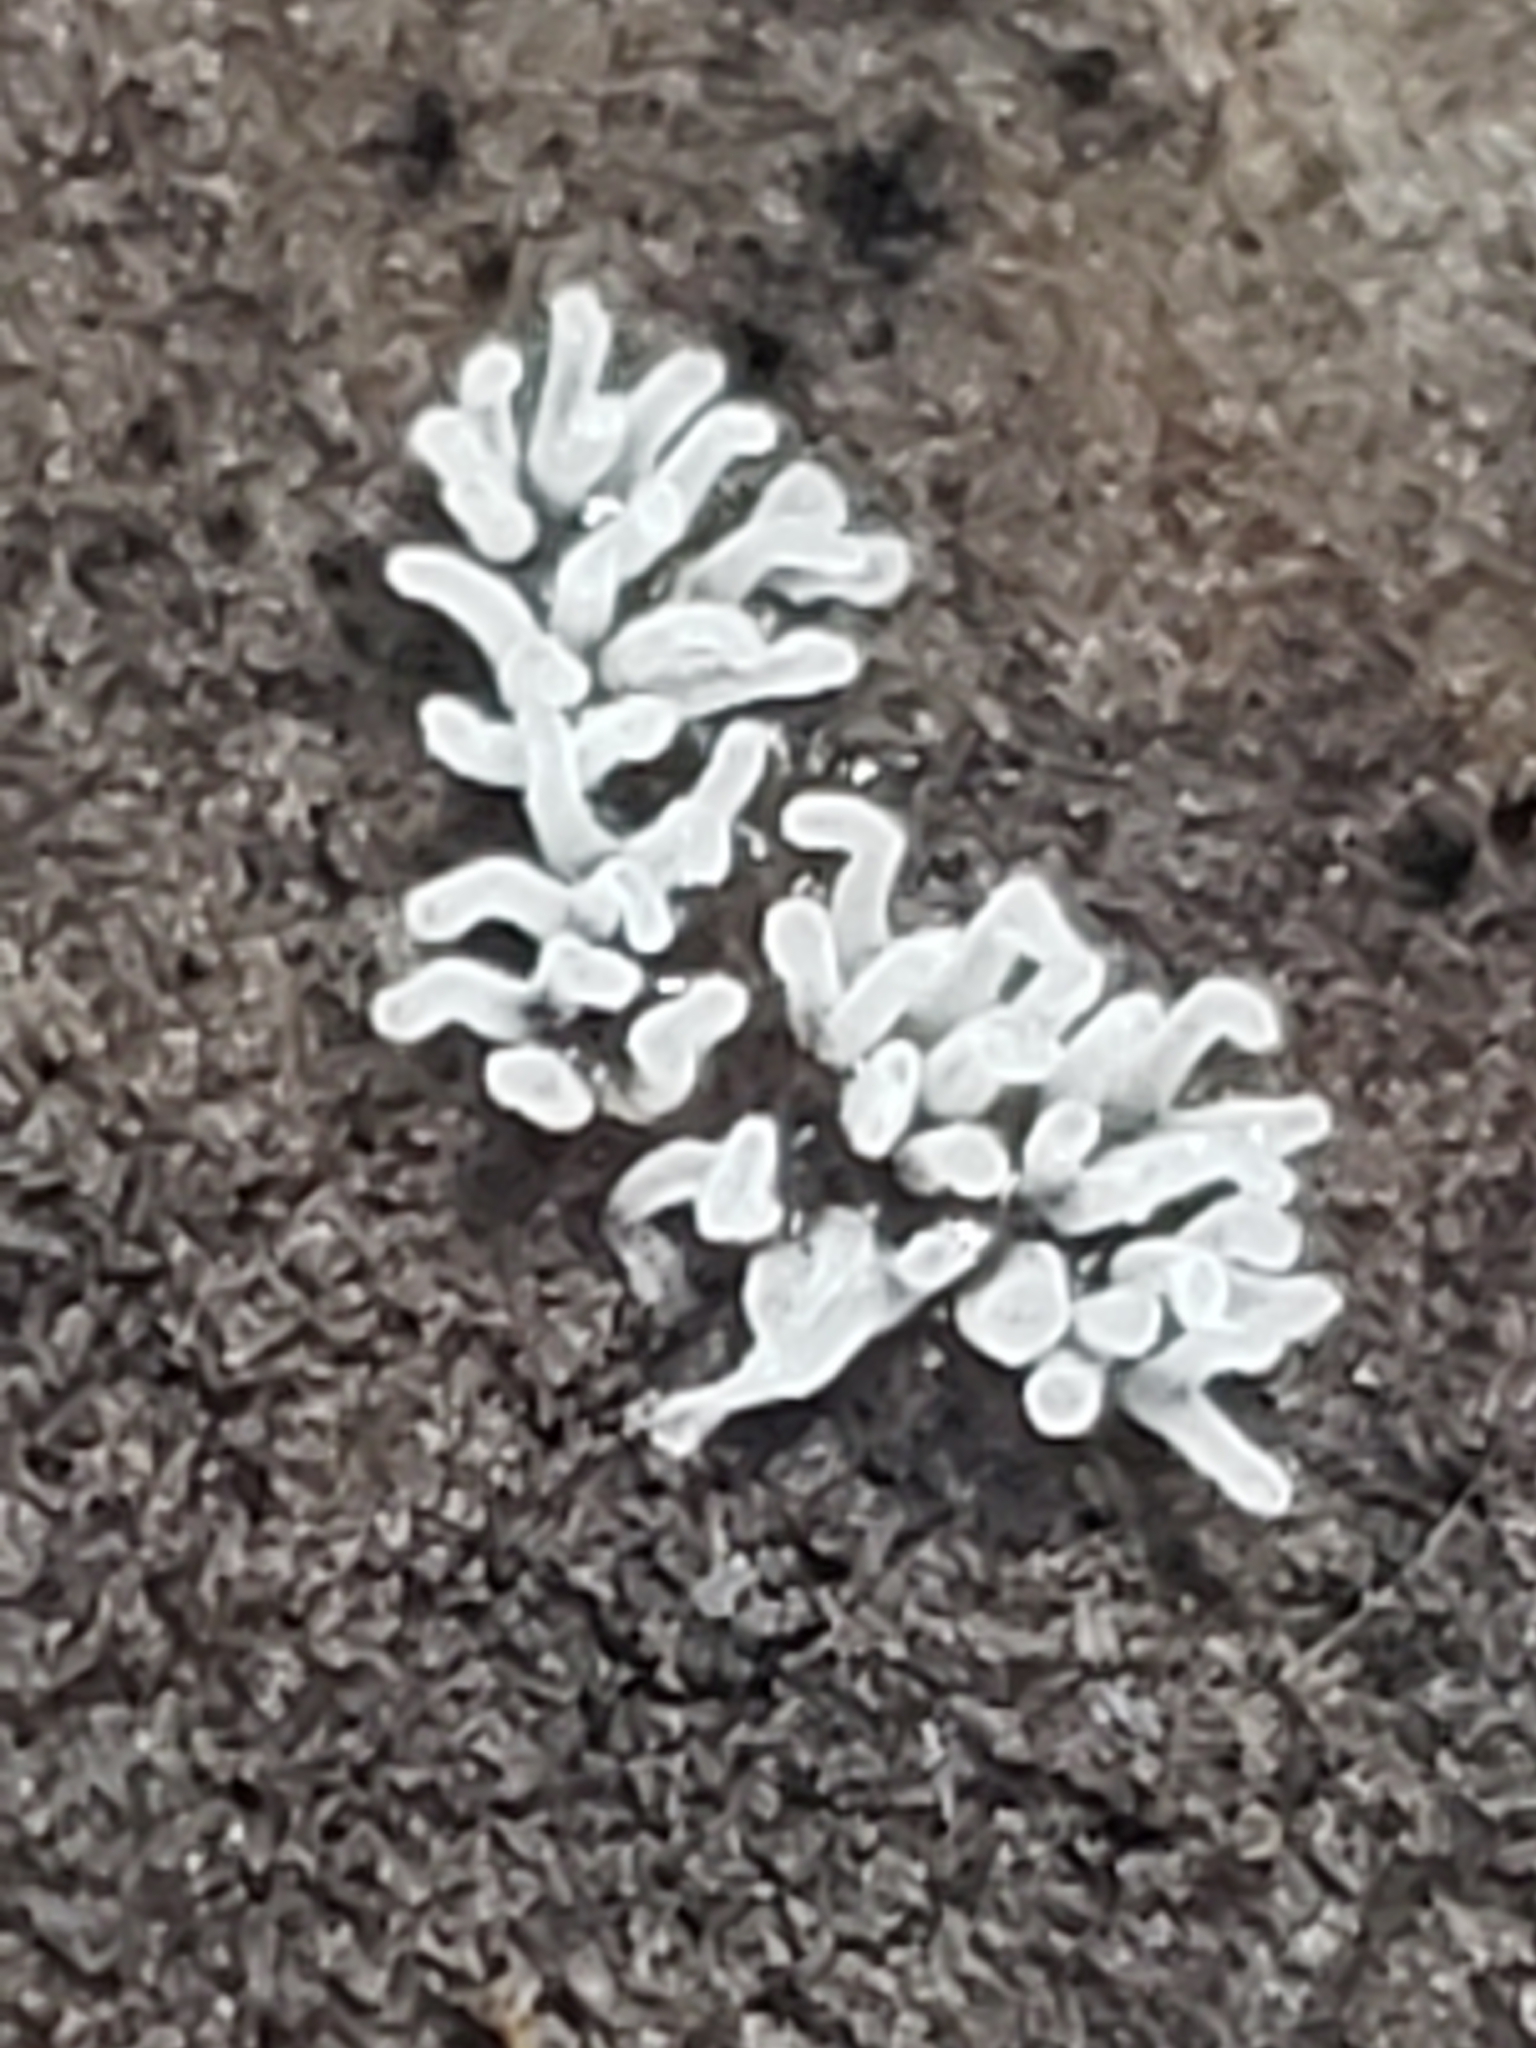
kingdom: Protozoa
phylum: Mycetozoa
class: Protosteliomycetes
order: Ceratiomyxales
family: Ceratiomyxaceae
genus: Ceratiomyxa
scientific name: Ceratiomyxa fruticulosa
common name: Honeycomb coral slime mold
